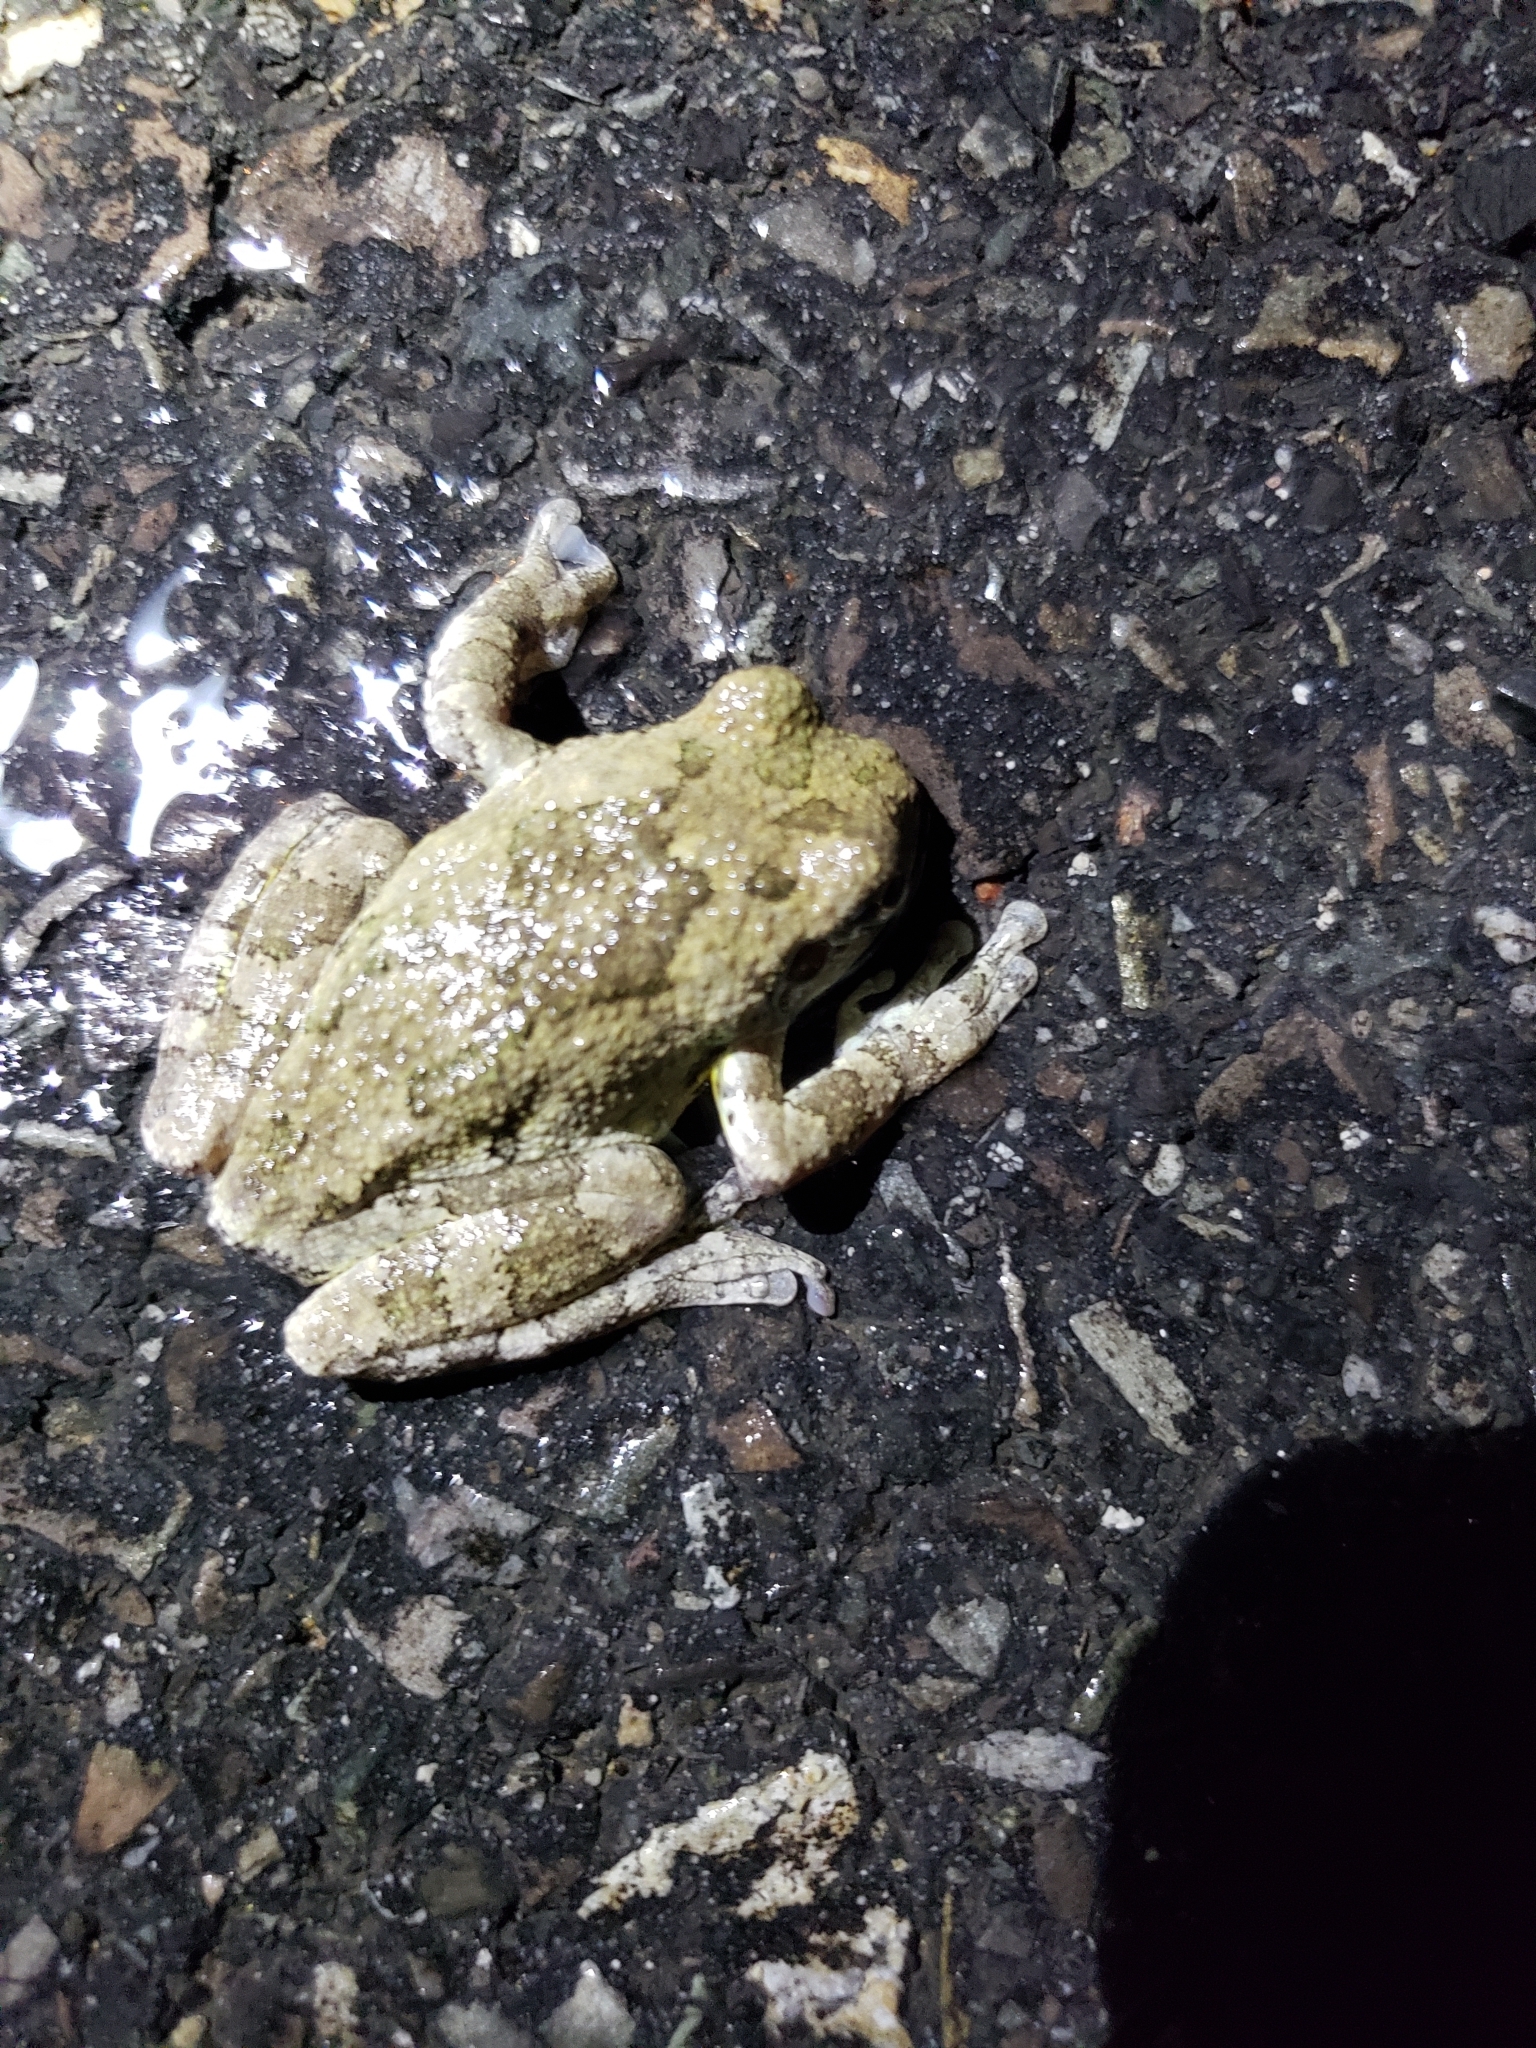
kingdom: Animalia
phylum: Chordata
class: Amphibia
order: Anura
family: Hylidae
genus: Dryophytes
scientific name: Dryophytes chrysoscelis
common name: Cope's gray treefrog
